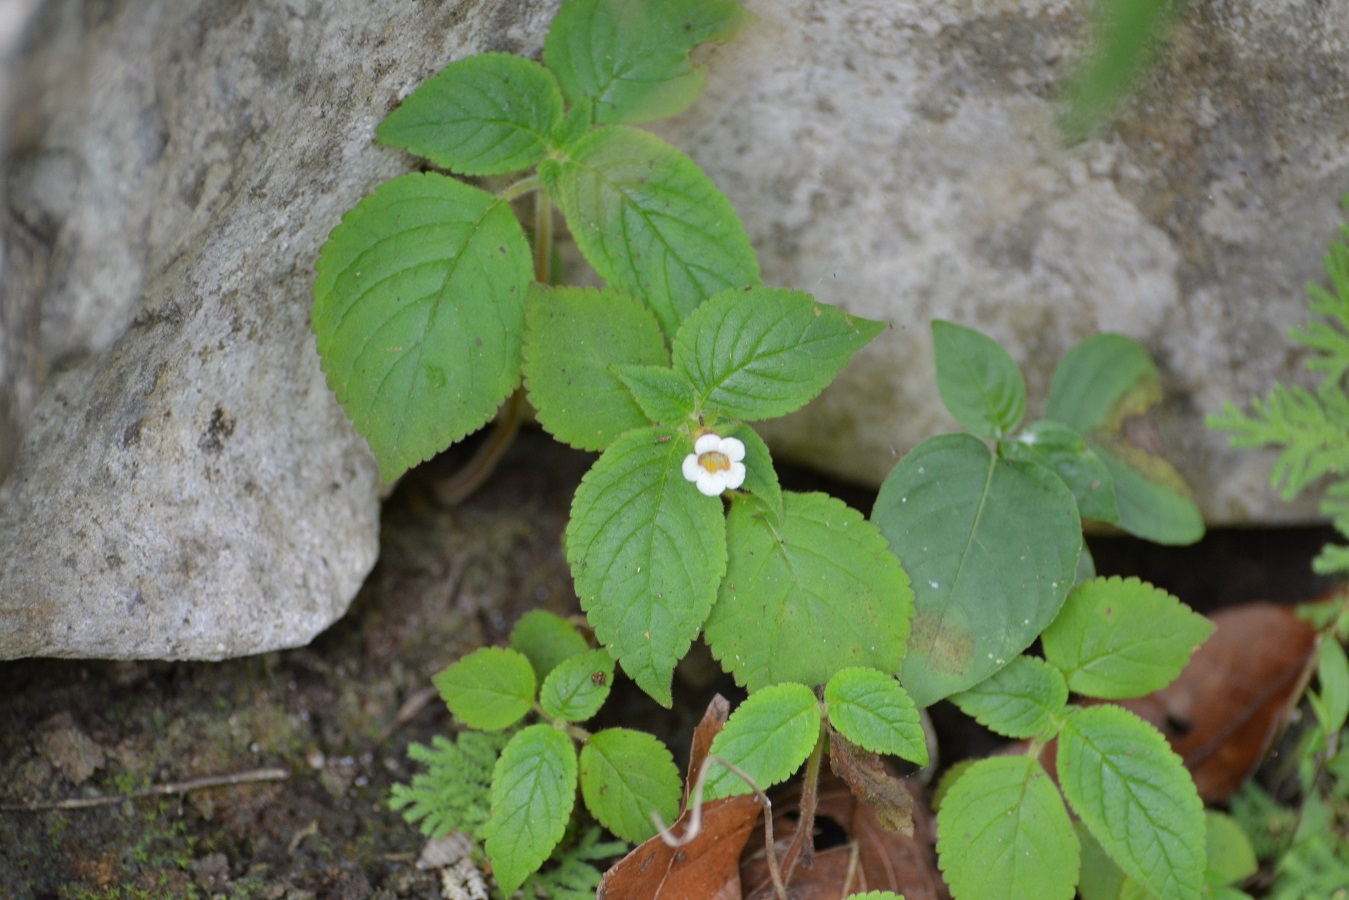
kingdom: Plantae
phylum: Tracheophyta
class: Magnoliopsida
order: Lamiales
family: Gesneriaceae
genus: Achimenes
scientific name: Achimenes misera
